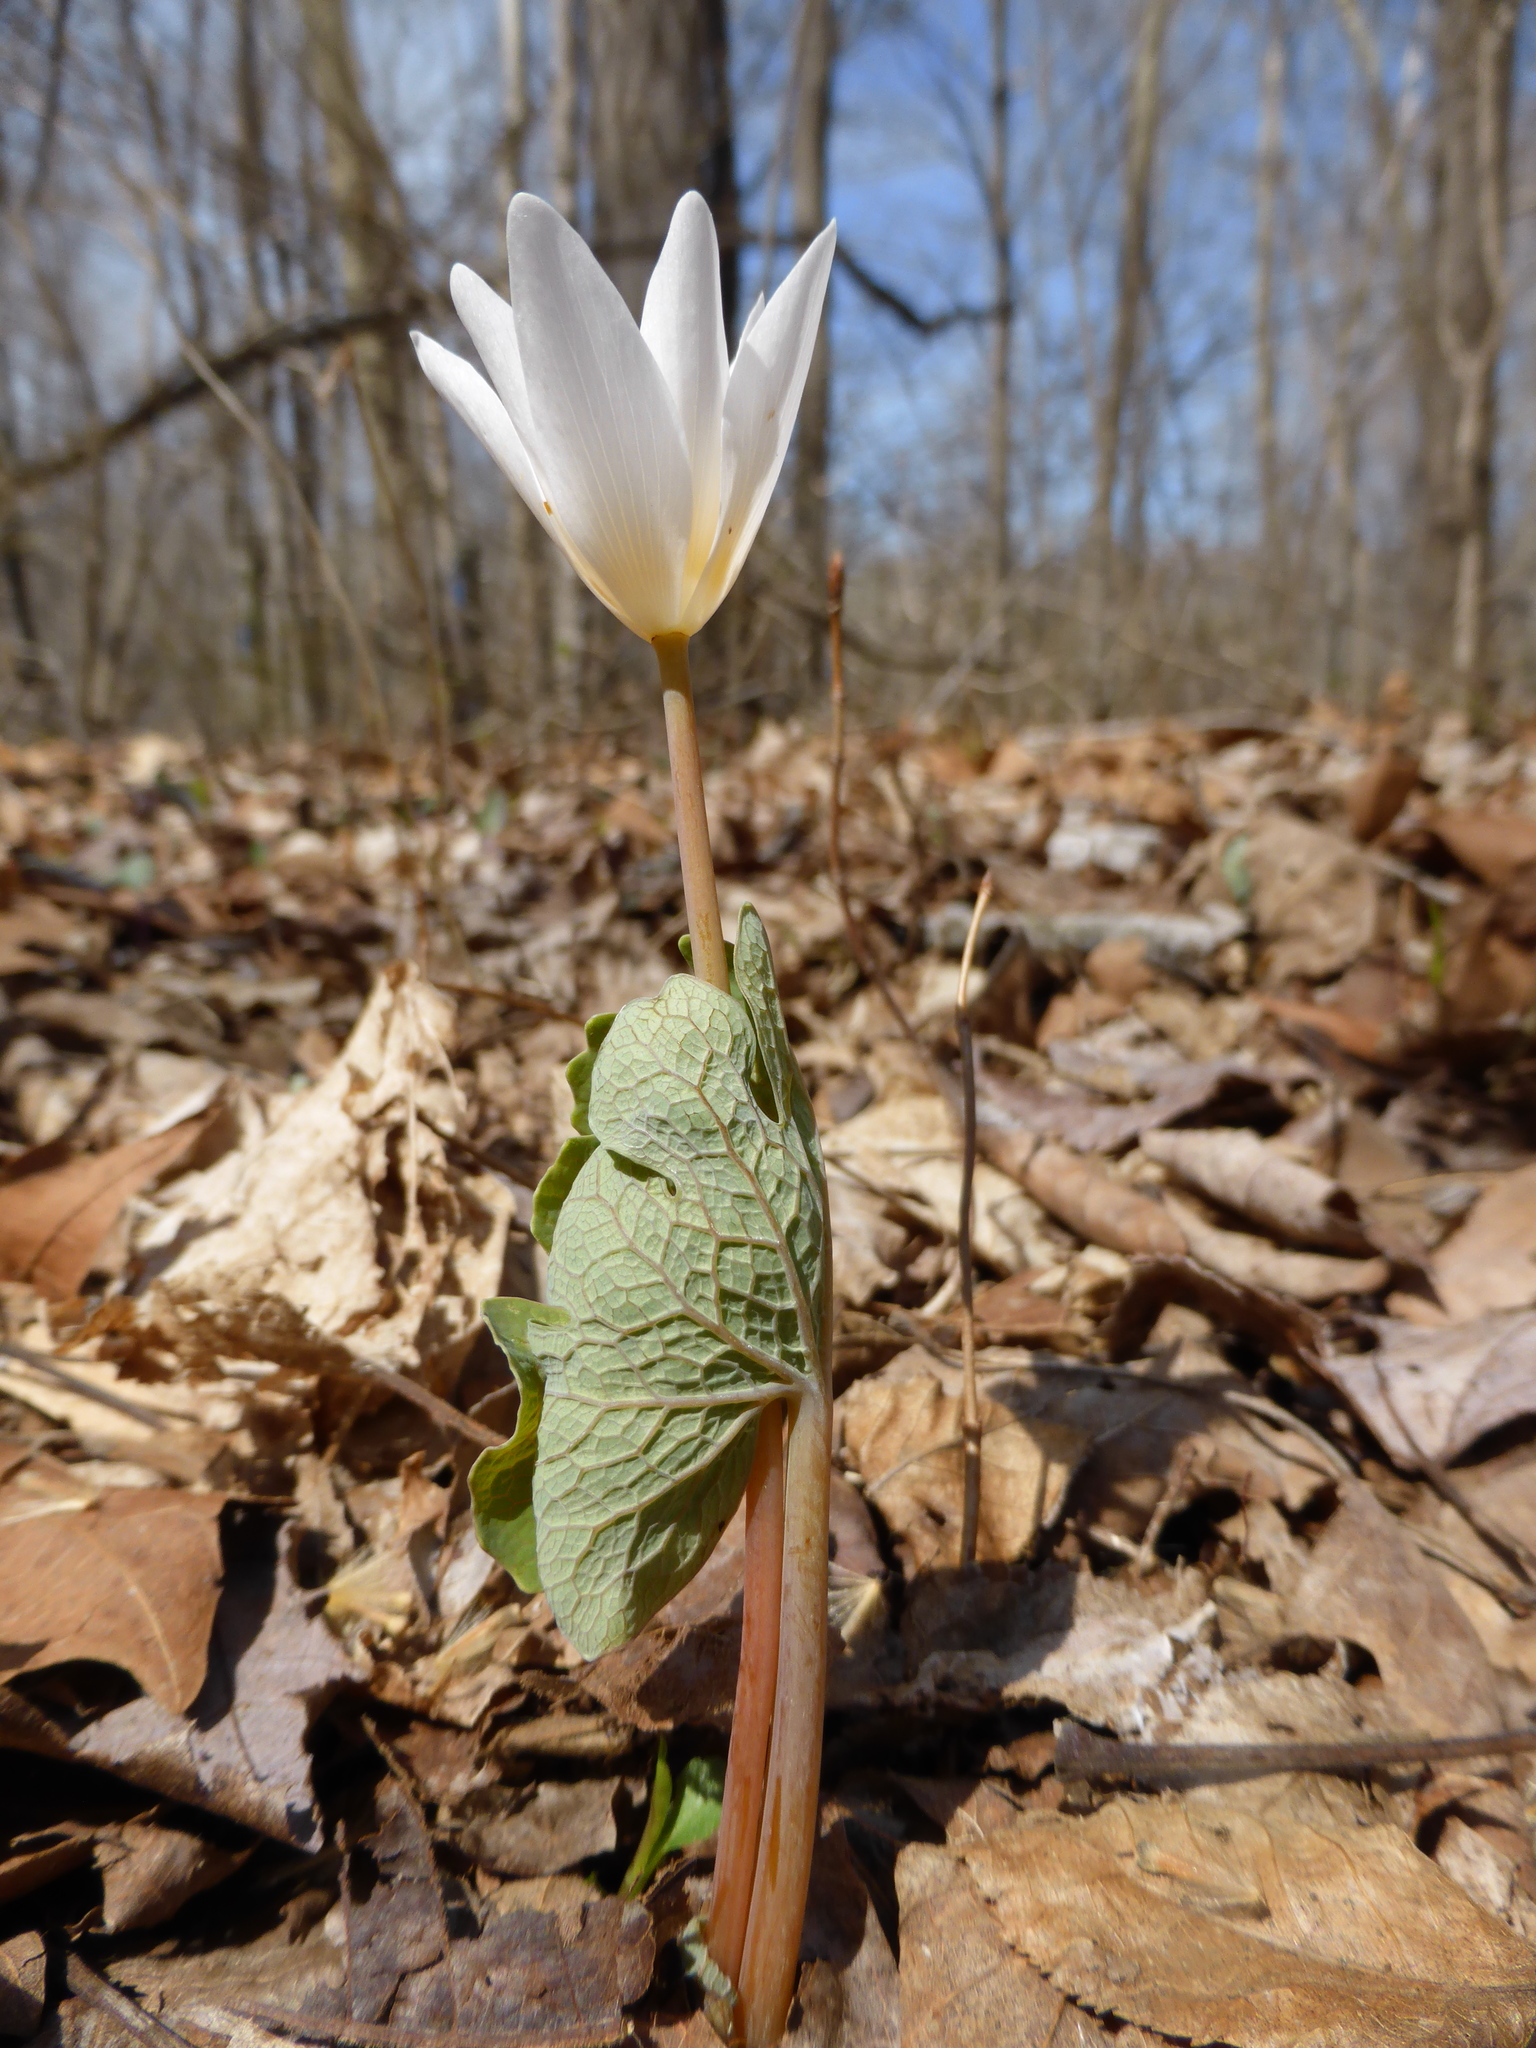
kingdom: Plantae
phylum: Tracheophyta
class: Magnoliopsida
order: Ranunculales
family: Papaveraceae
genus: Sanguinaria
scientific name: Sanguinaria canadensis
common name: Bloodroot
